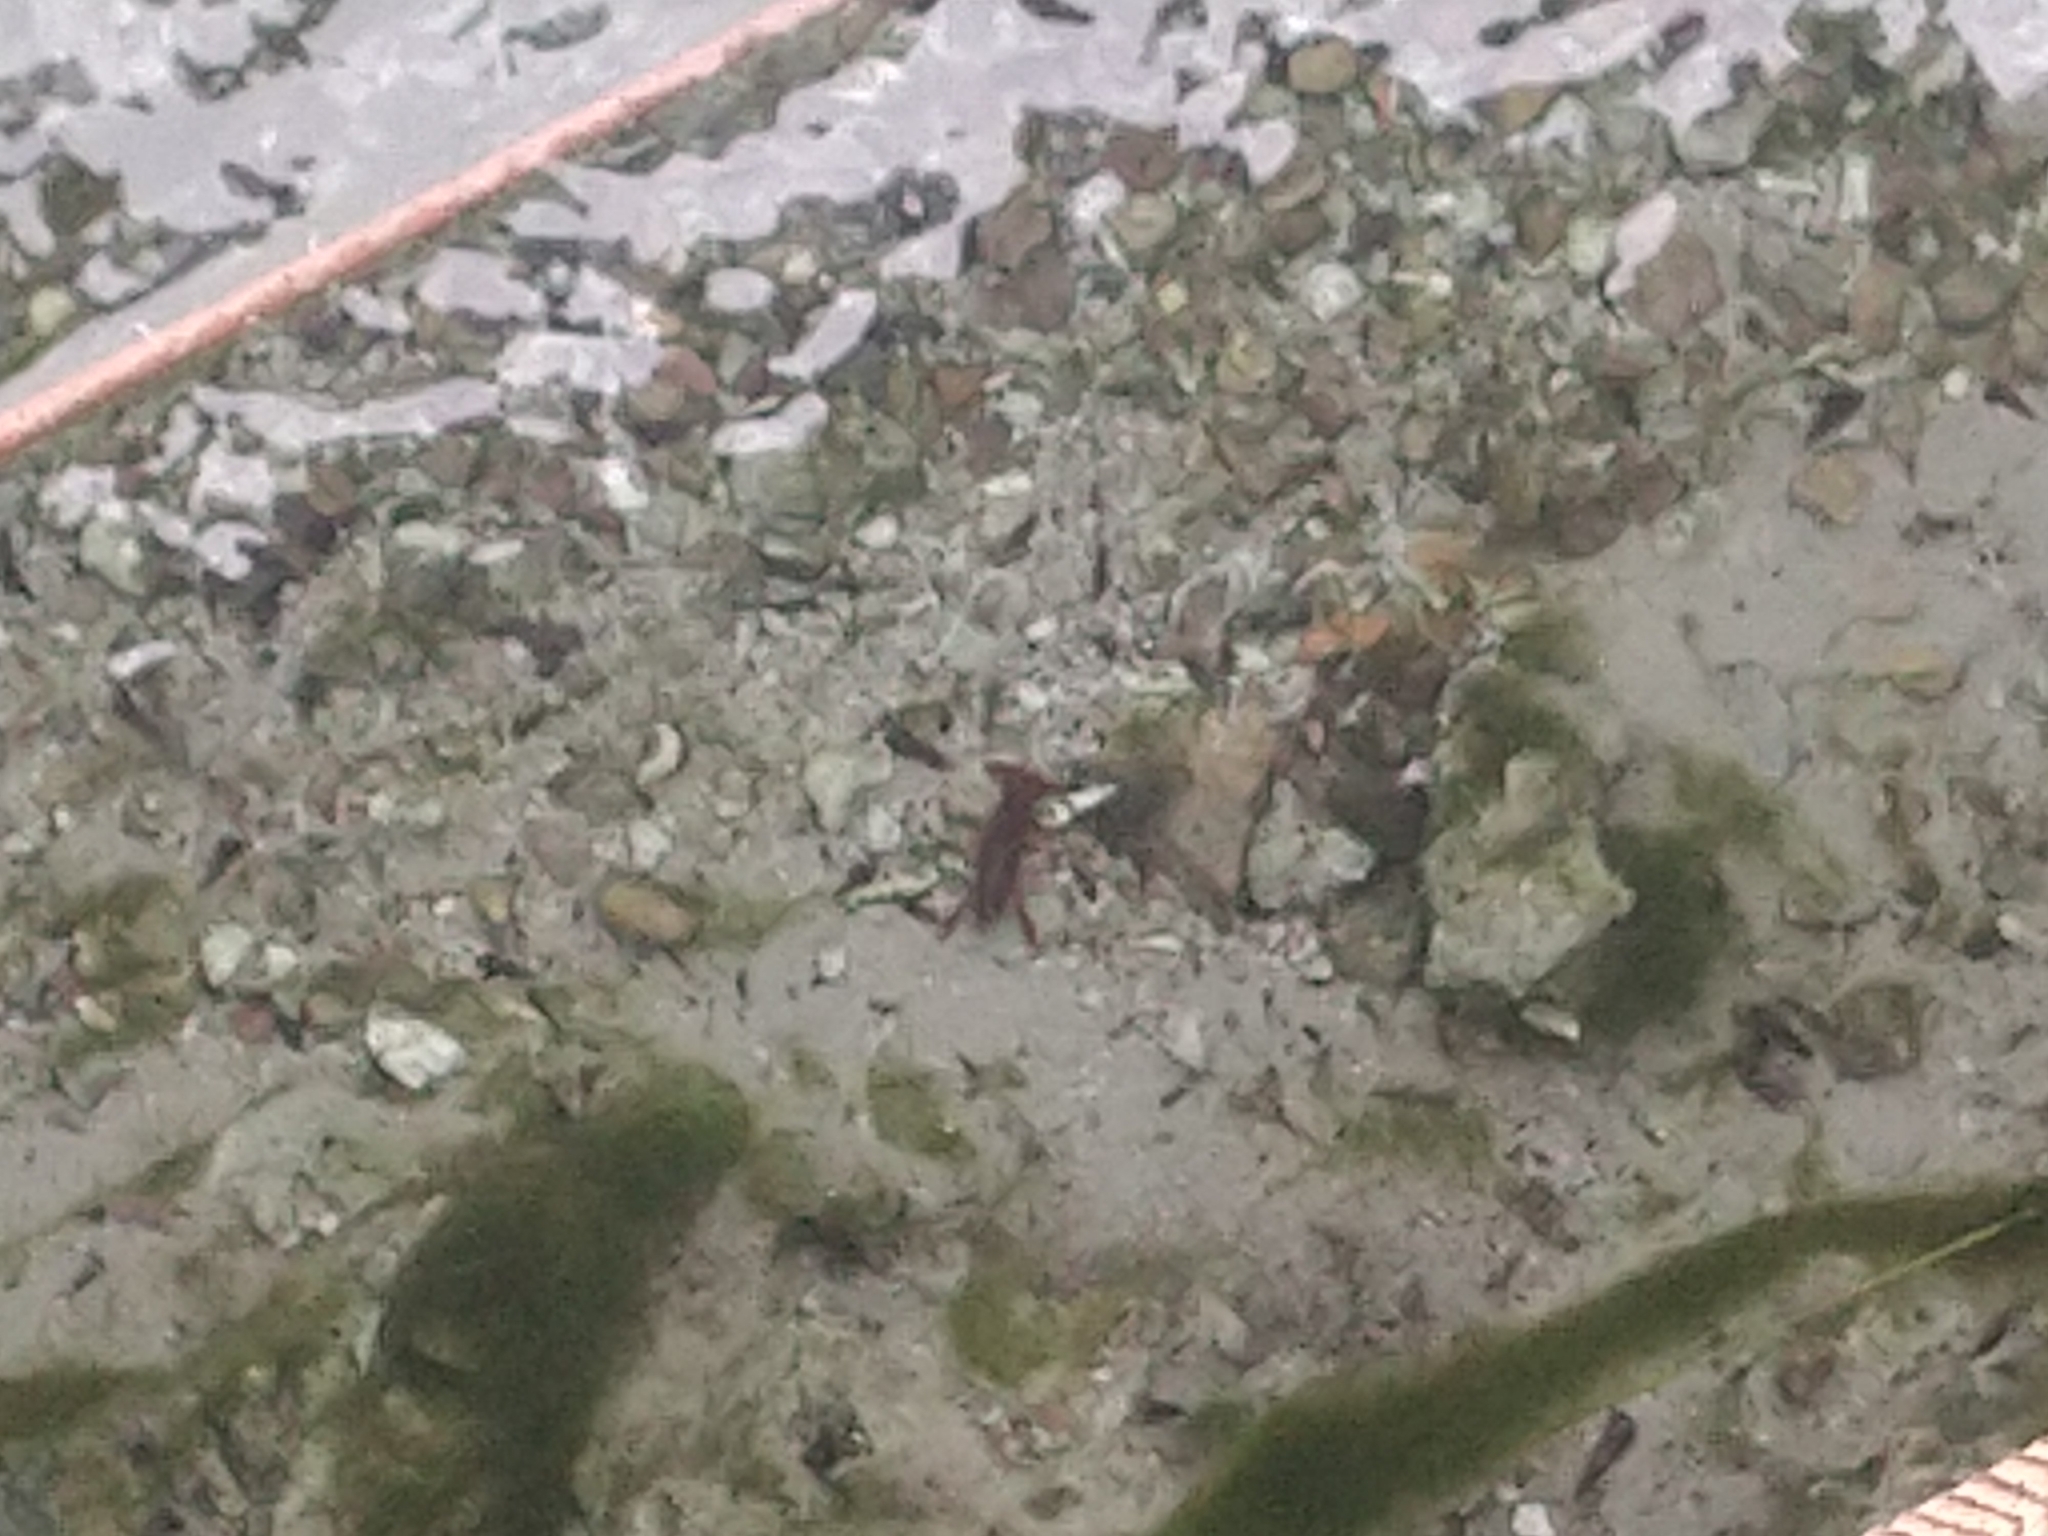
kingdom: Animalia
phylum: Arthropoda
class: Malacostraca
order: Decapoda
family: Cambaridae
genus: Procambarus
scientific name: Procambarus clarkii
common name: Red swamp crayfish
